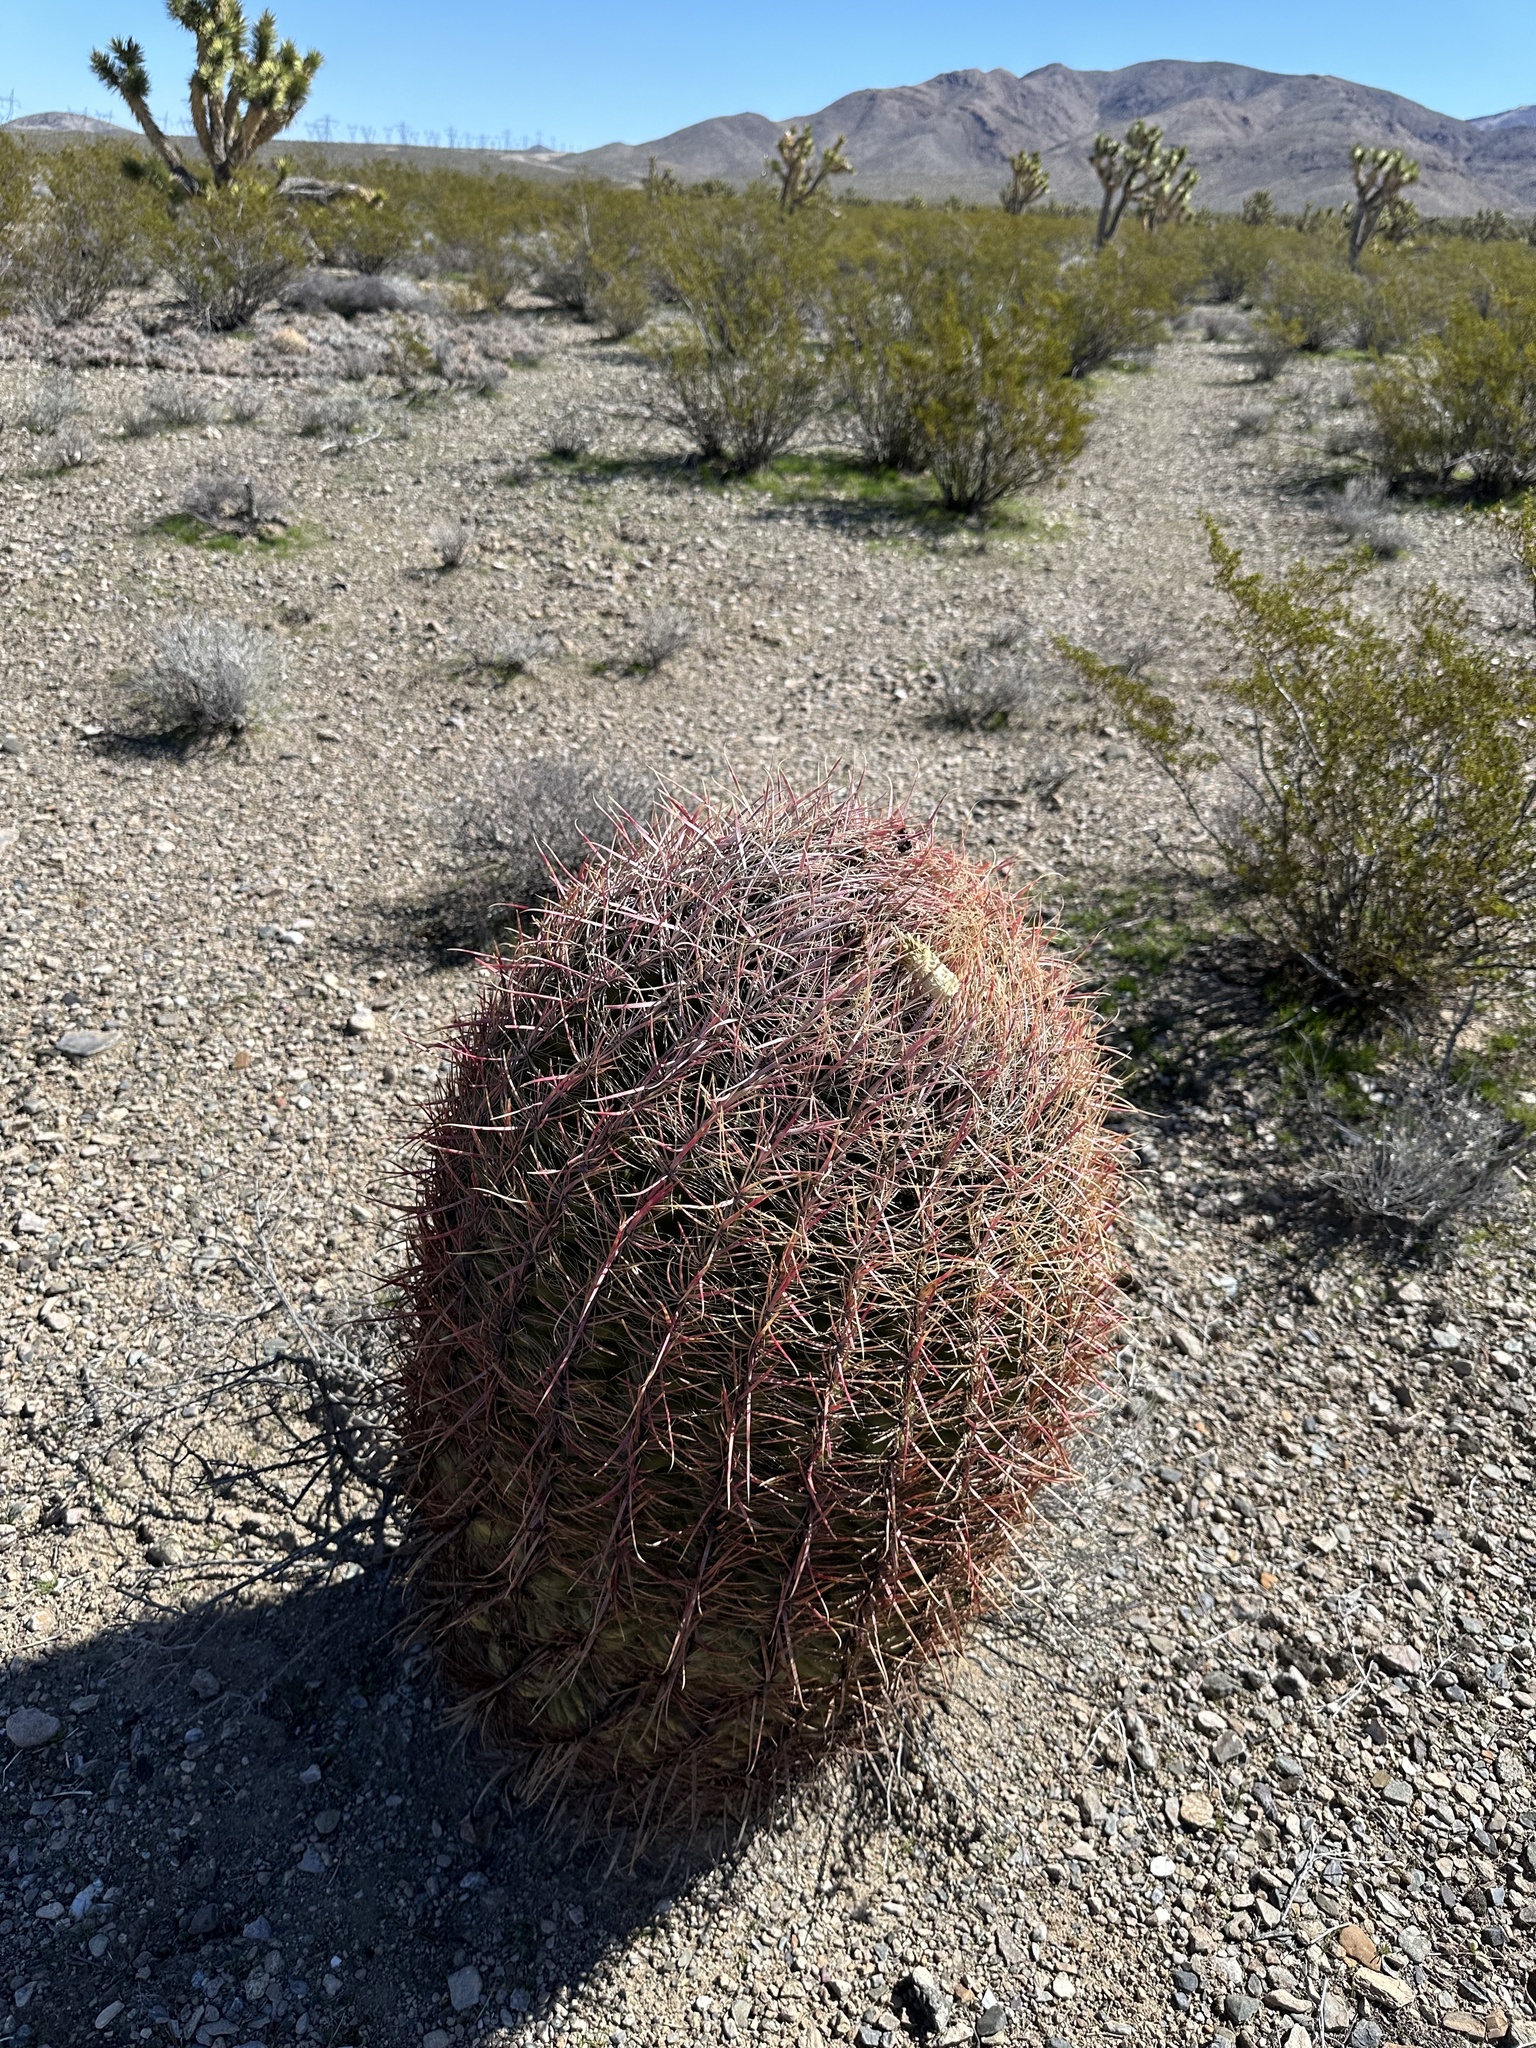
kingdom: Plantae
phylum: Tracheophyta
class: Magnoliopsida
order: Caryophyllales
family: Cactaceae
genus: Ferocactus
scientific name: Ferocactus cylindraceus
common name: California barrel cactus
